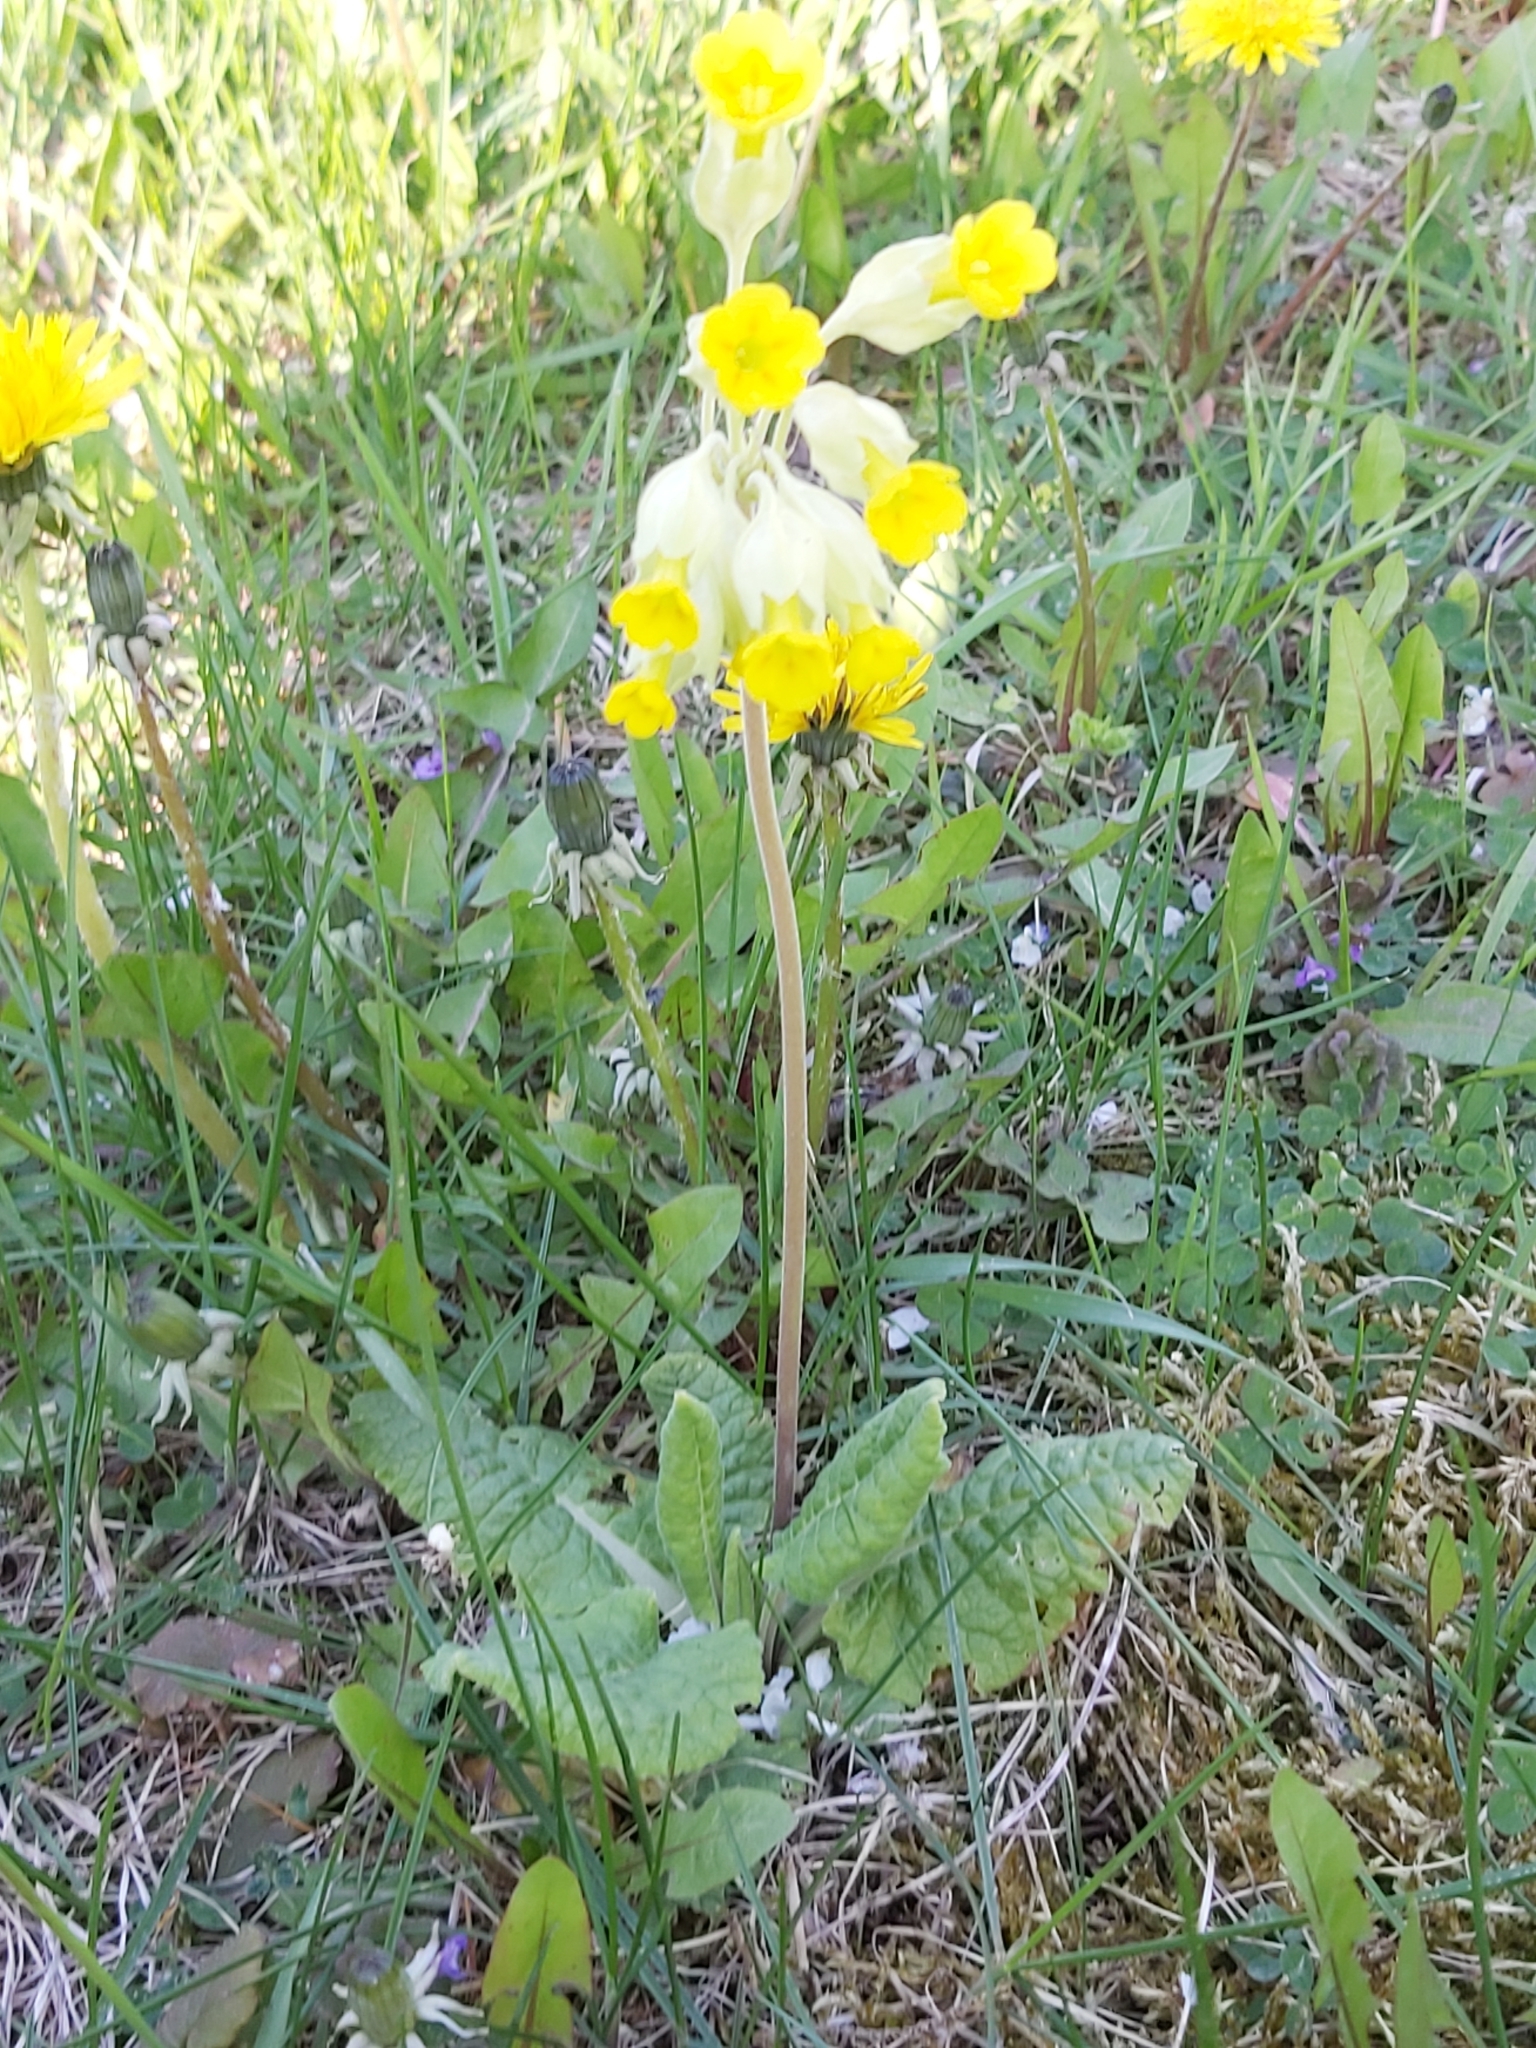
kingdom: Plantae
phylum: Tracheophyta
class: Magnoliopsida
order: Ericales
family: Primulaceae
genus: Primula
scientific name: Primula veris
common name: Cowslip
